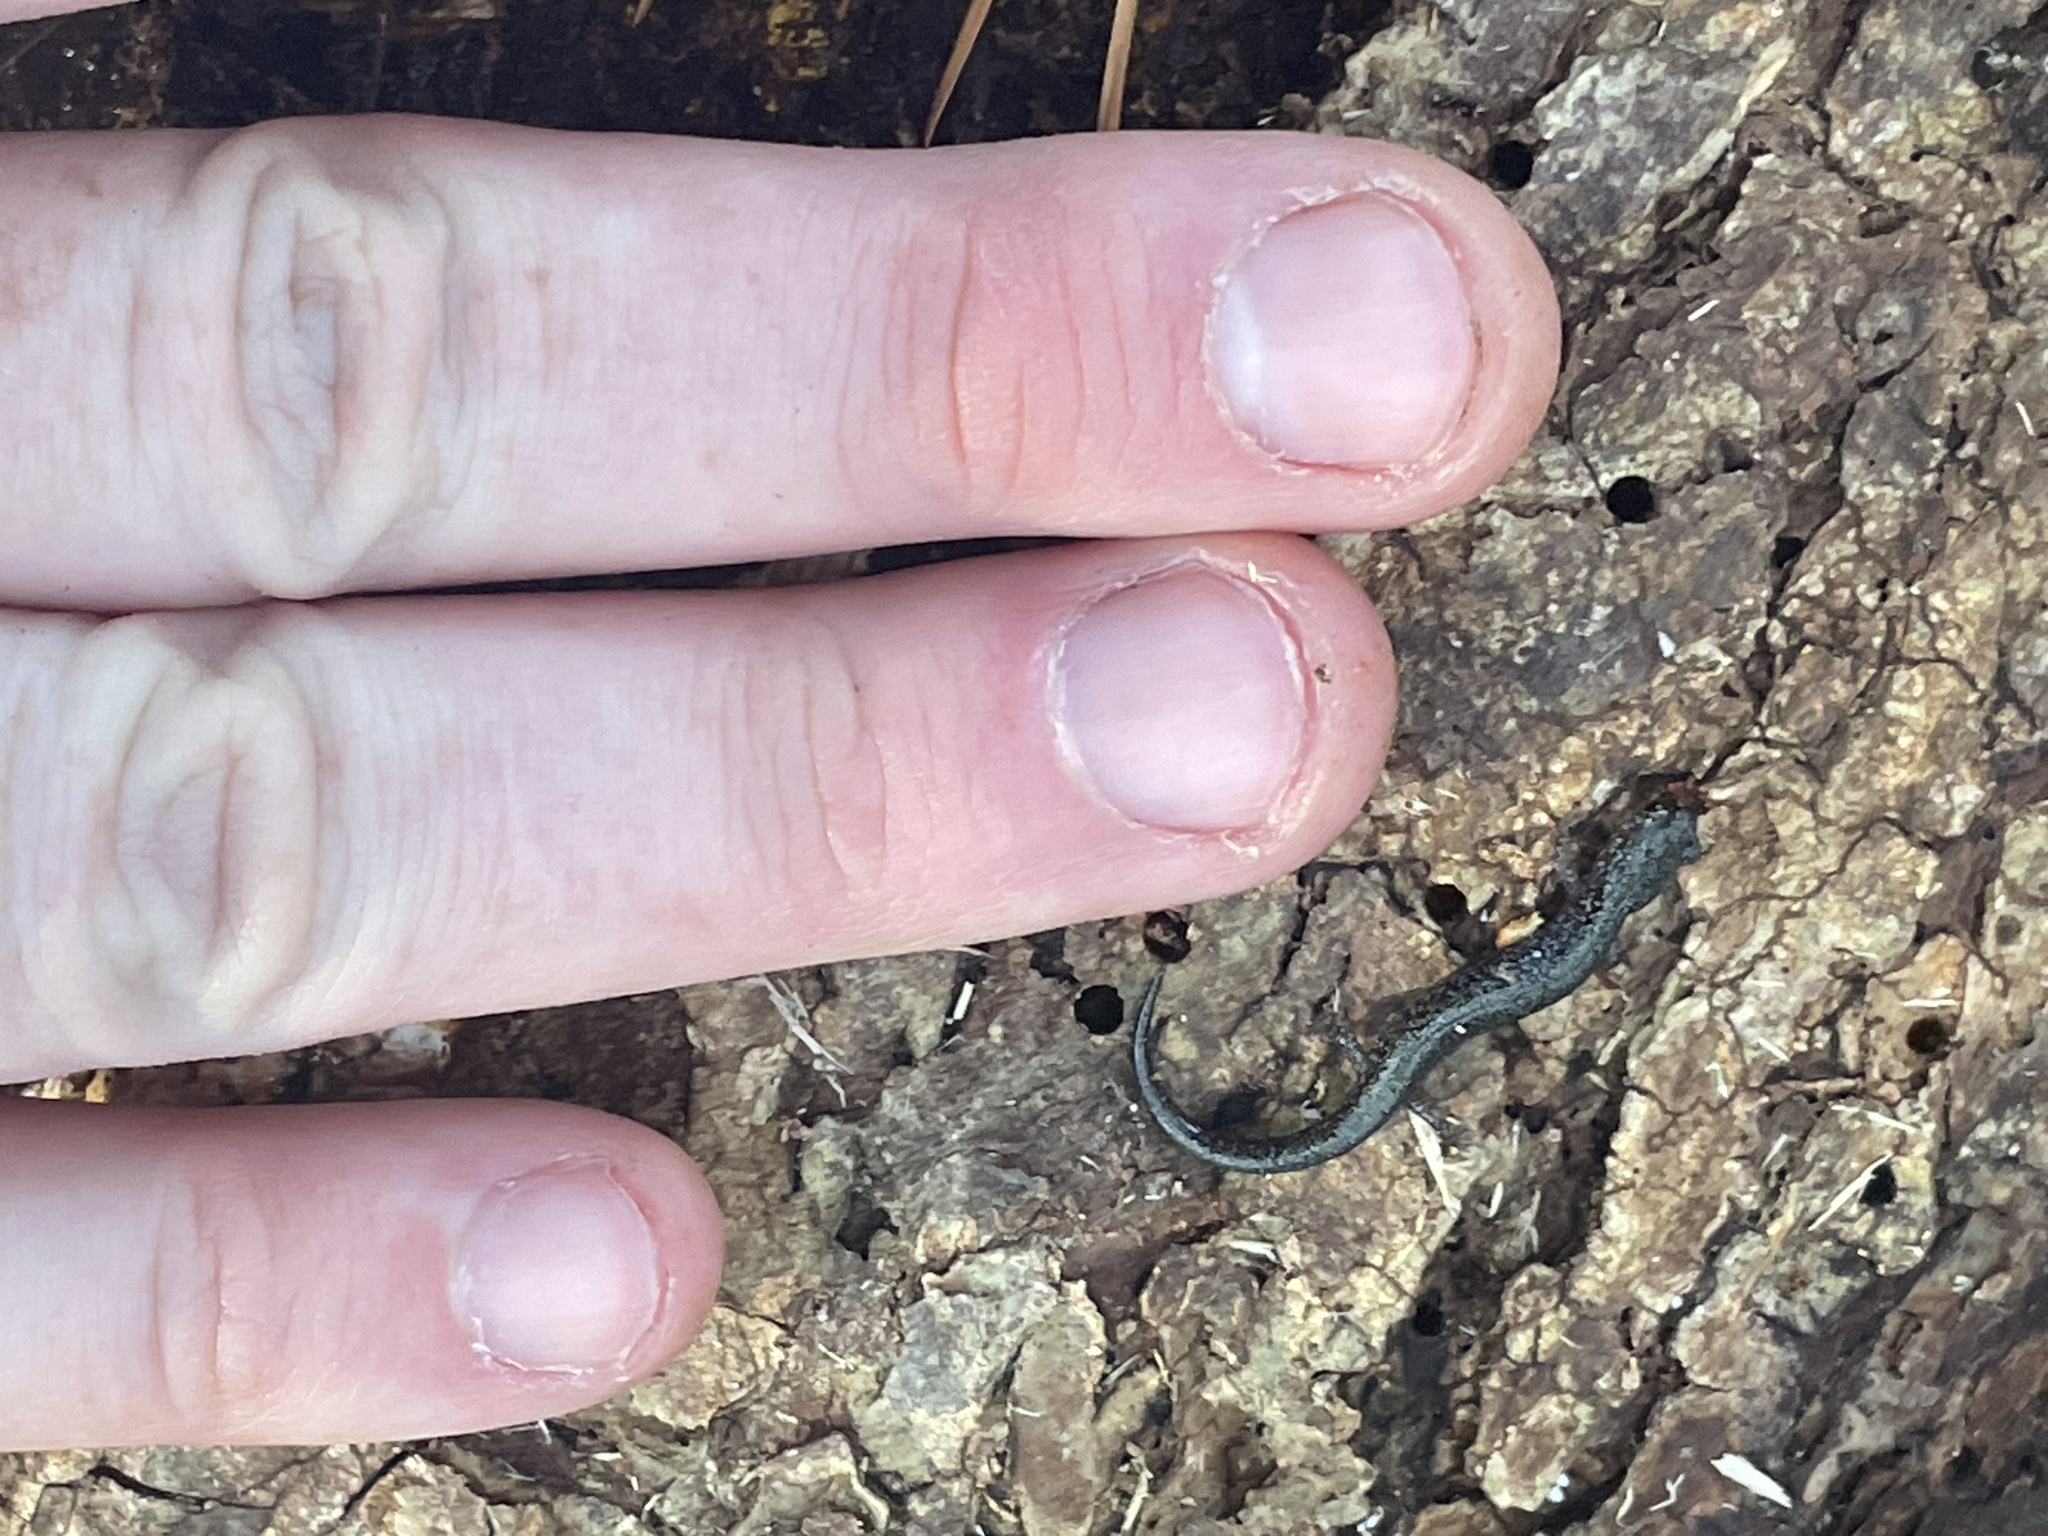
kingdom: Animalia
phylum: Chordata
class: Amphibia
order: Caudata
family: Plethodontidae
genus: Plethodon
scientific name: Plethodon cinereus
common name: Redback salamander
